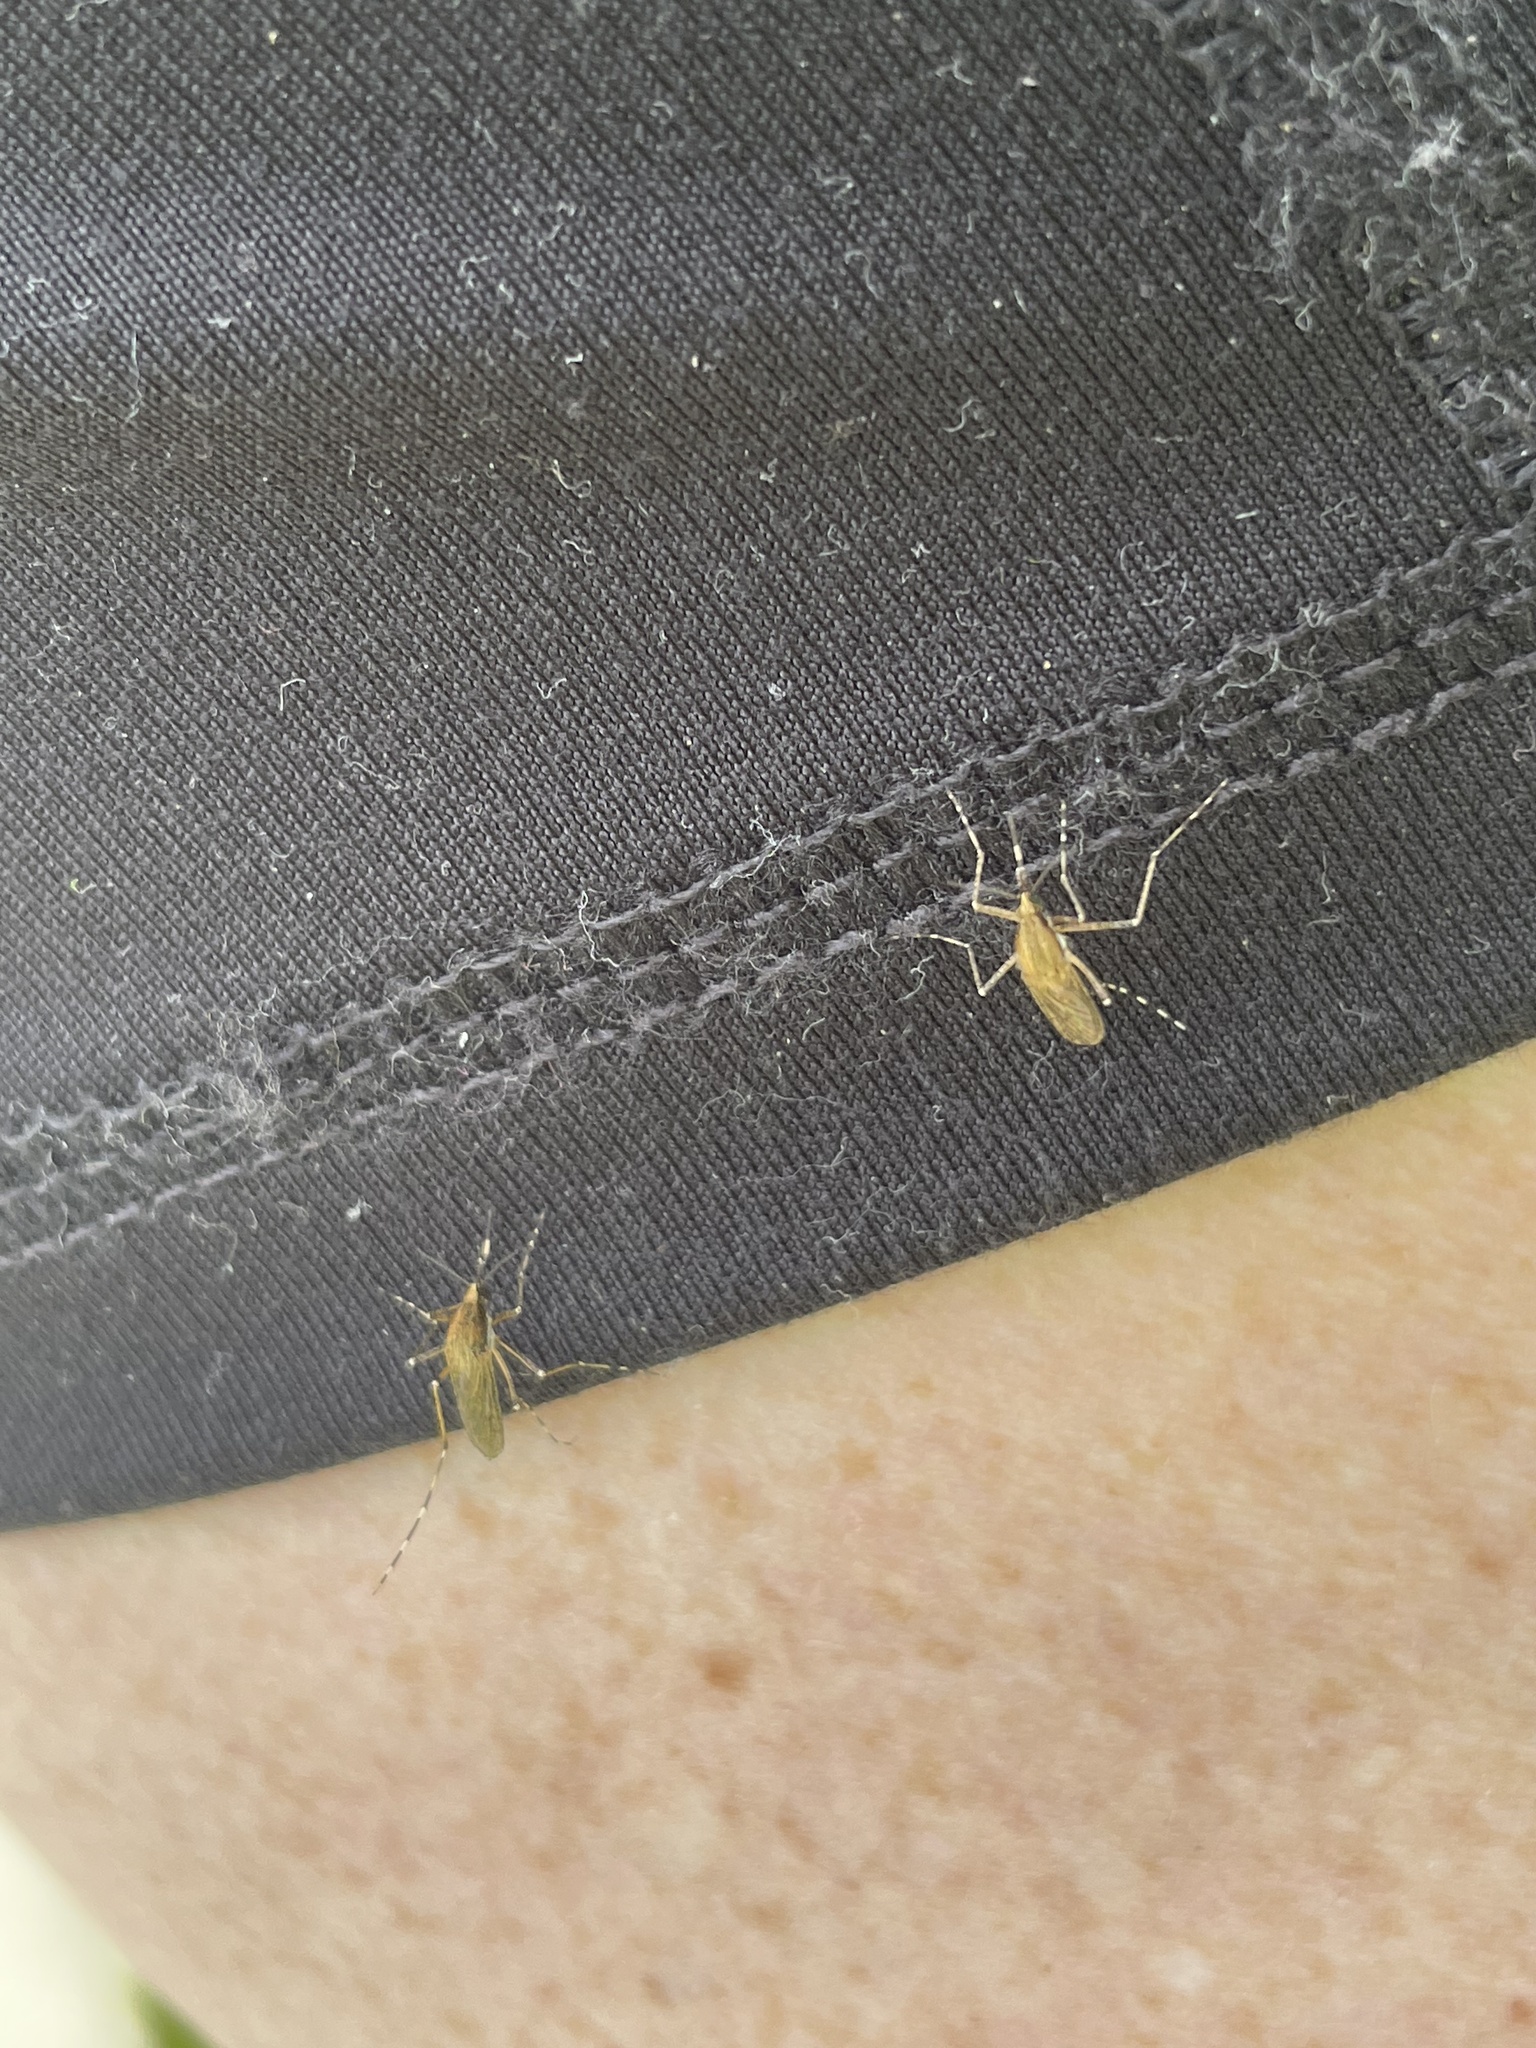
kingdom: Animalia
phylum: Arthropoda
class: Insecta
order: Diptera
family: Culicidae
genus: Aedes
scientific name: Aedes sollicitans
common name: Saltmarsh mosquito
